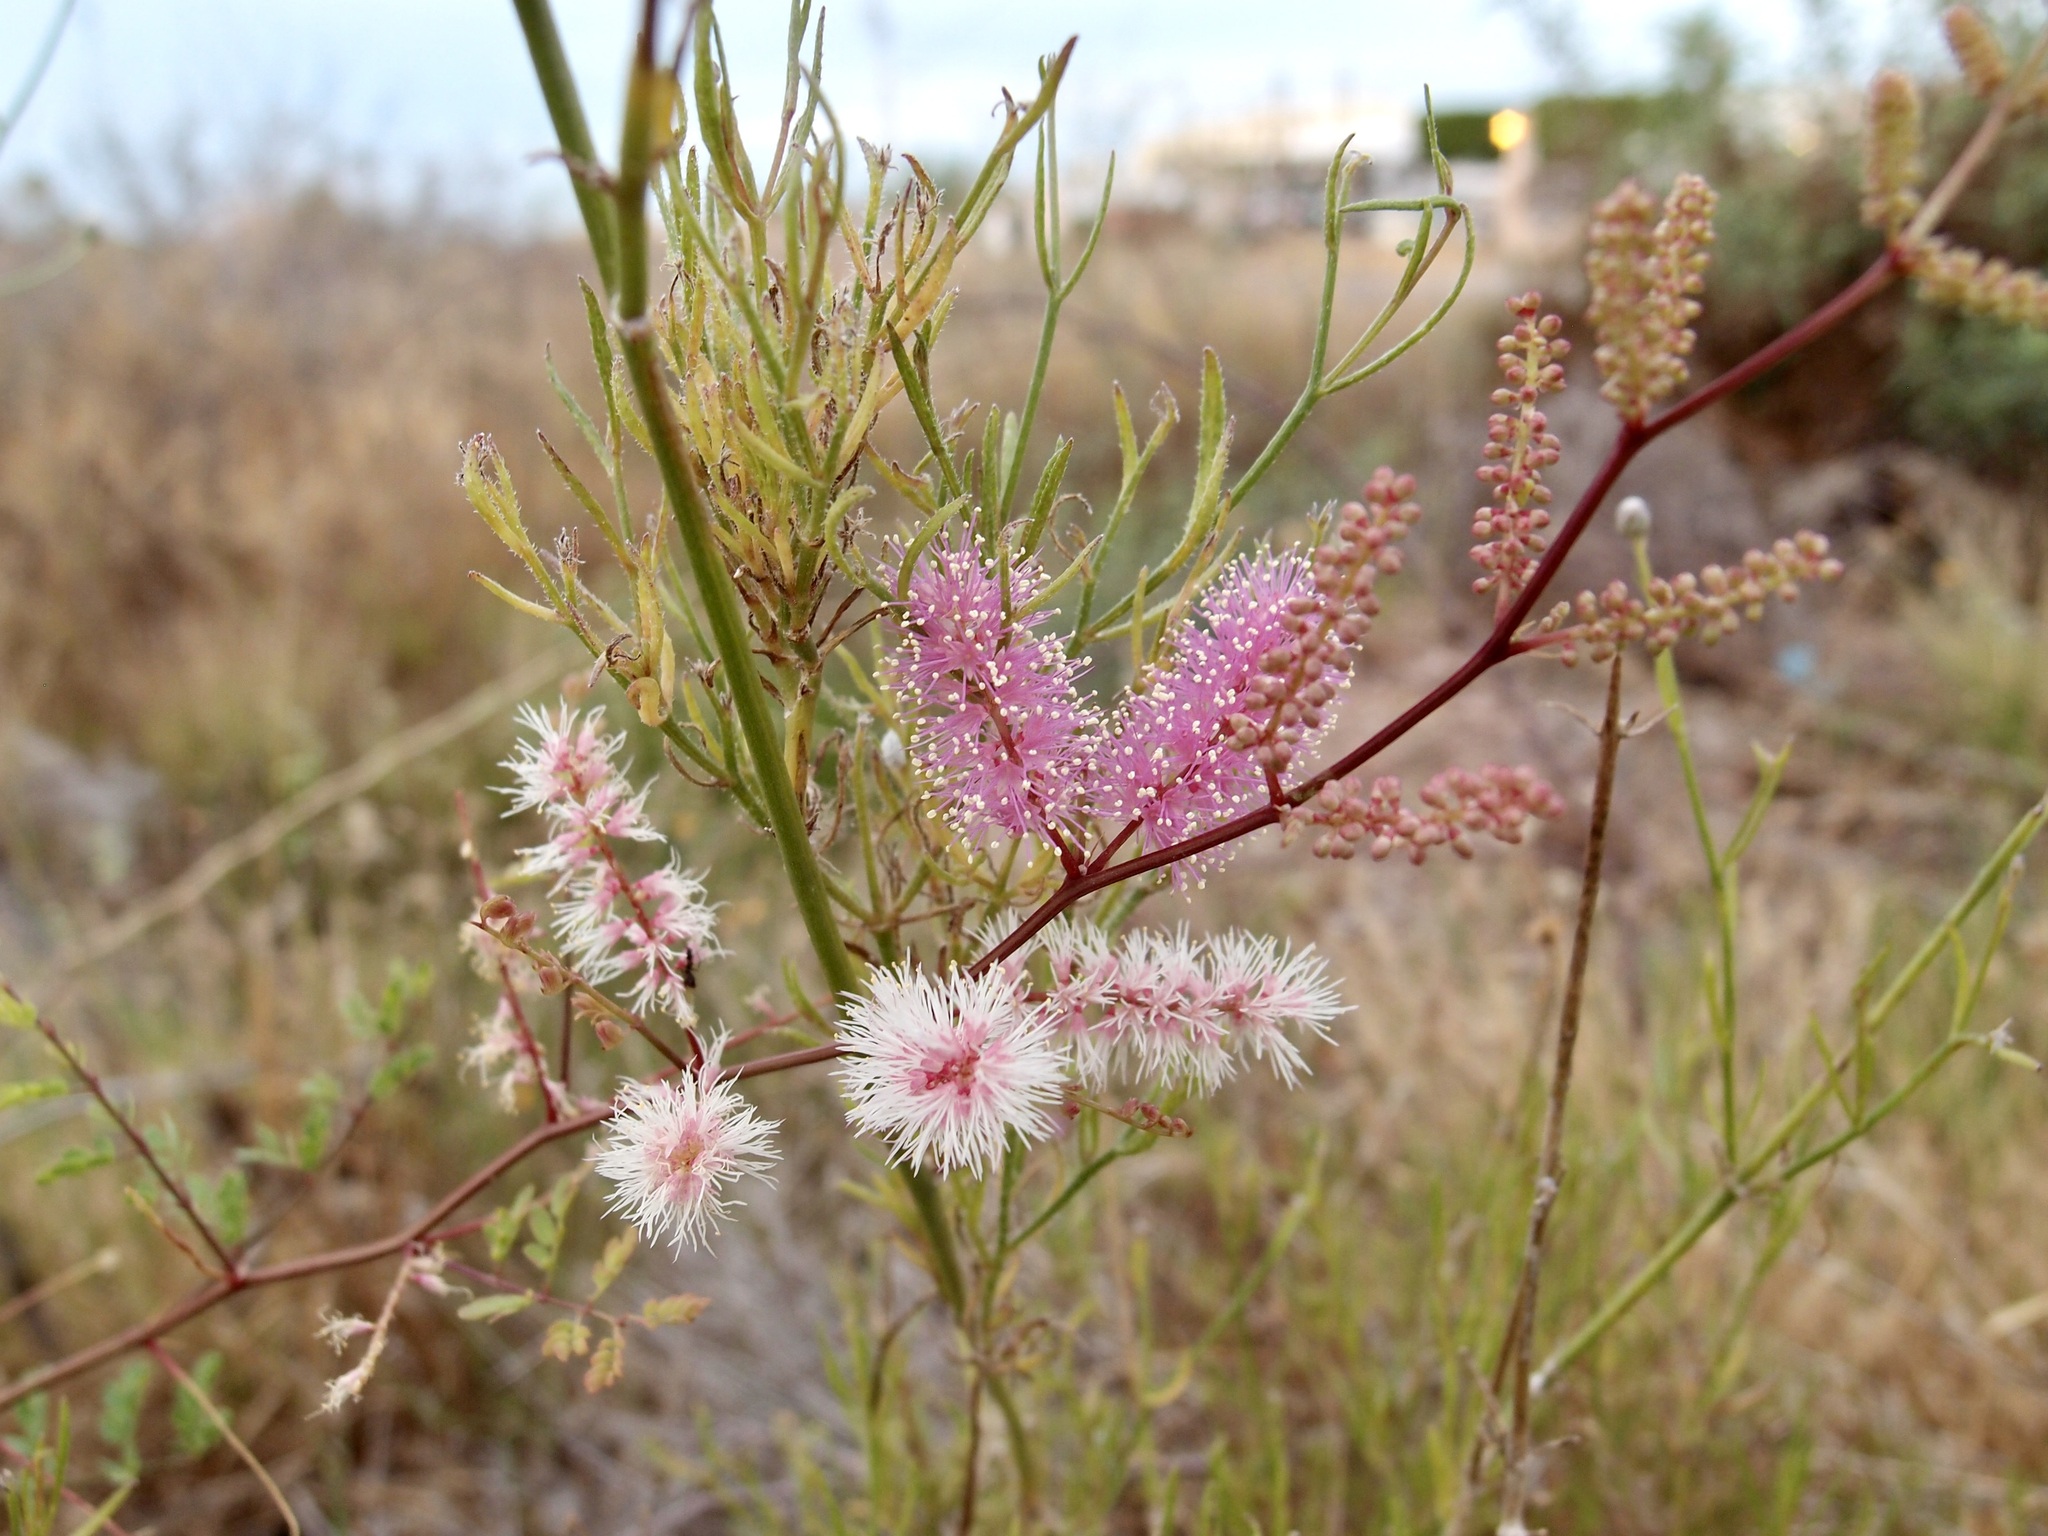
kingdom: Plantae
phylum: Tracheophyta
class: Magnoliopsida
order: Fabales
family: Fabaceae
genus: Mimosa
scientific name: Mimosa distachya
